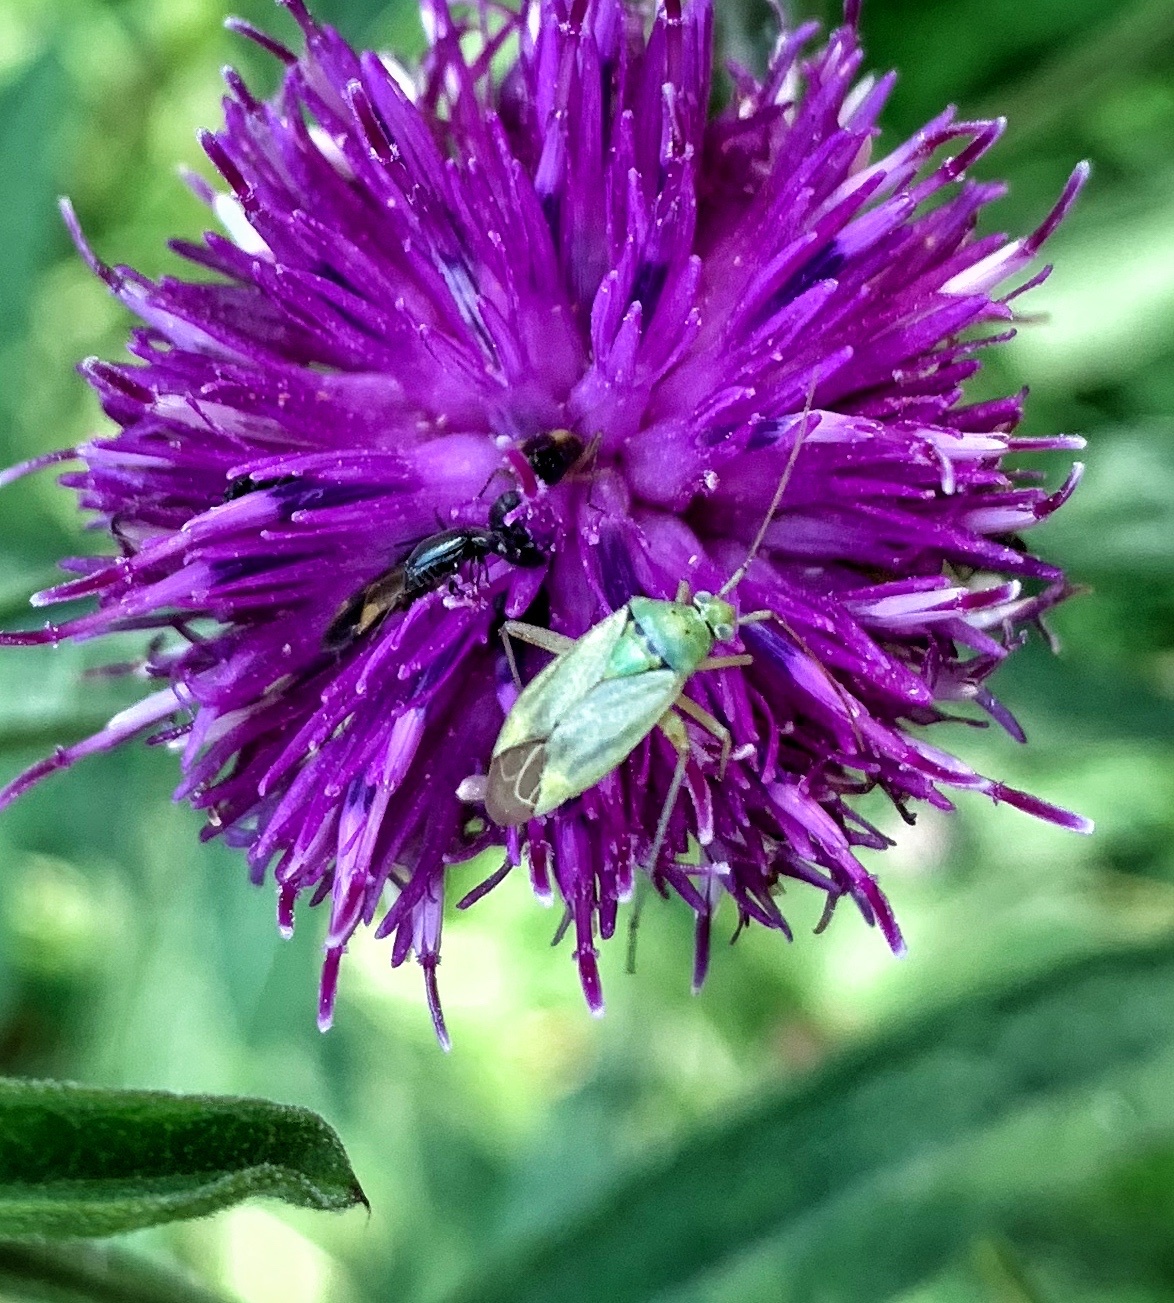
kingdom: Animalia
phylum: Arthropoda
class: Insecta
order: Hemiptera
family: Miridae
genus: Closterotomus
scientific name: Closterotomus norvegicus
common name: Plant bug
